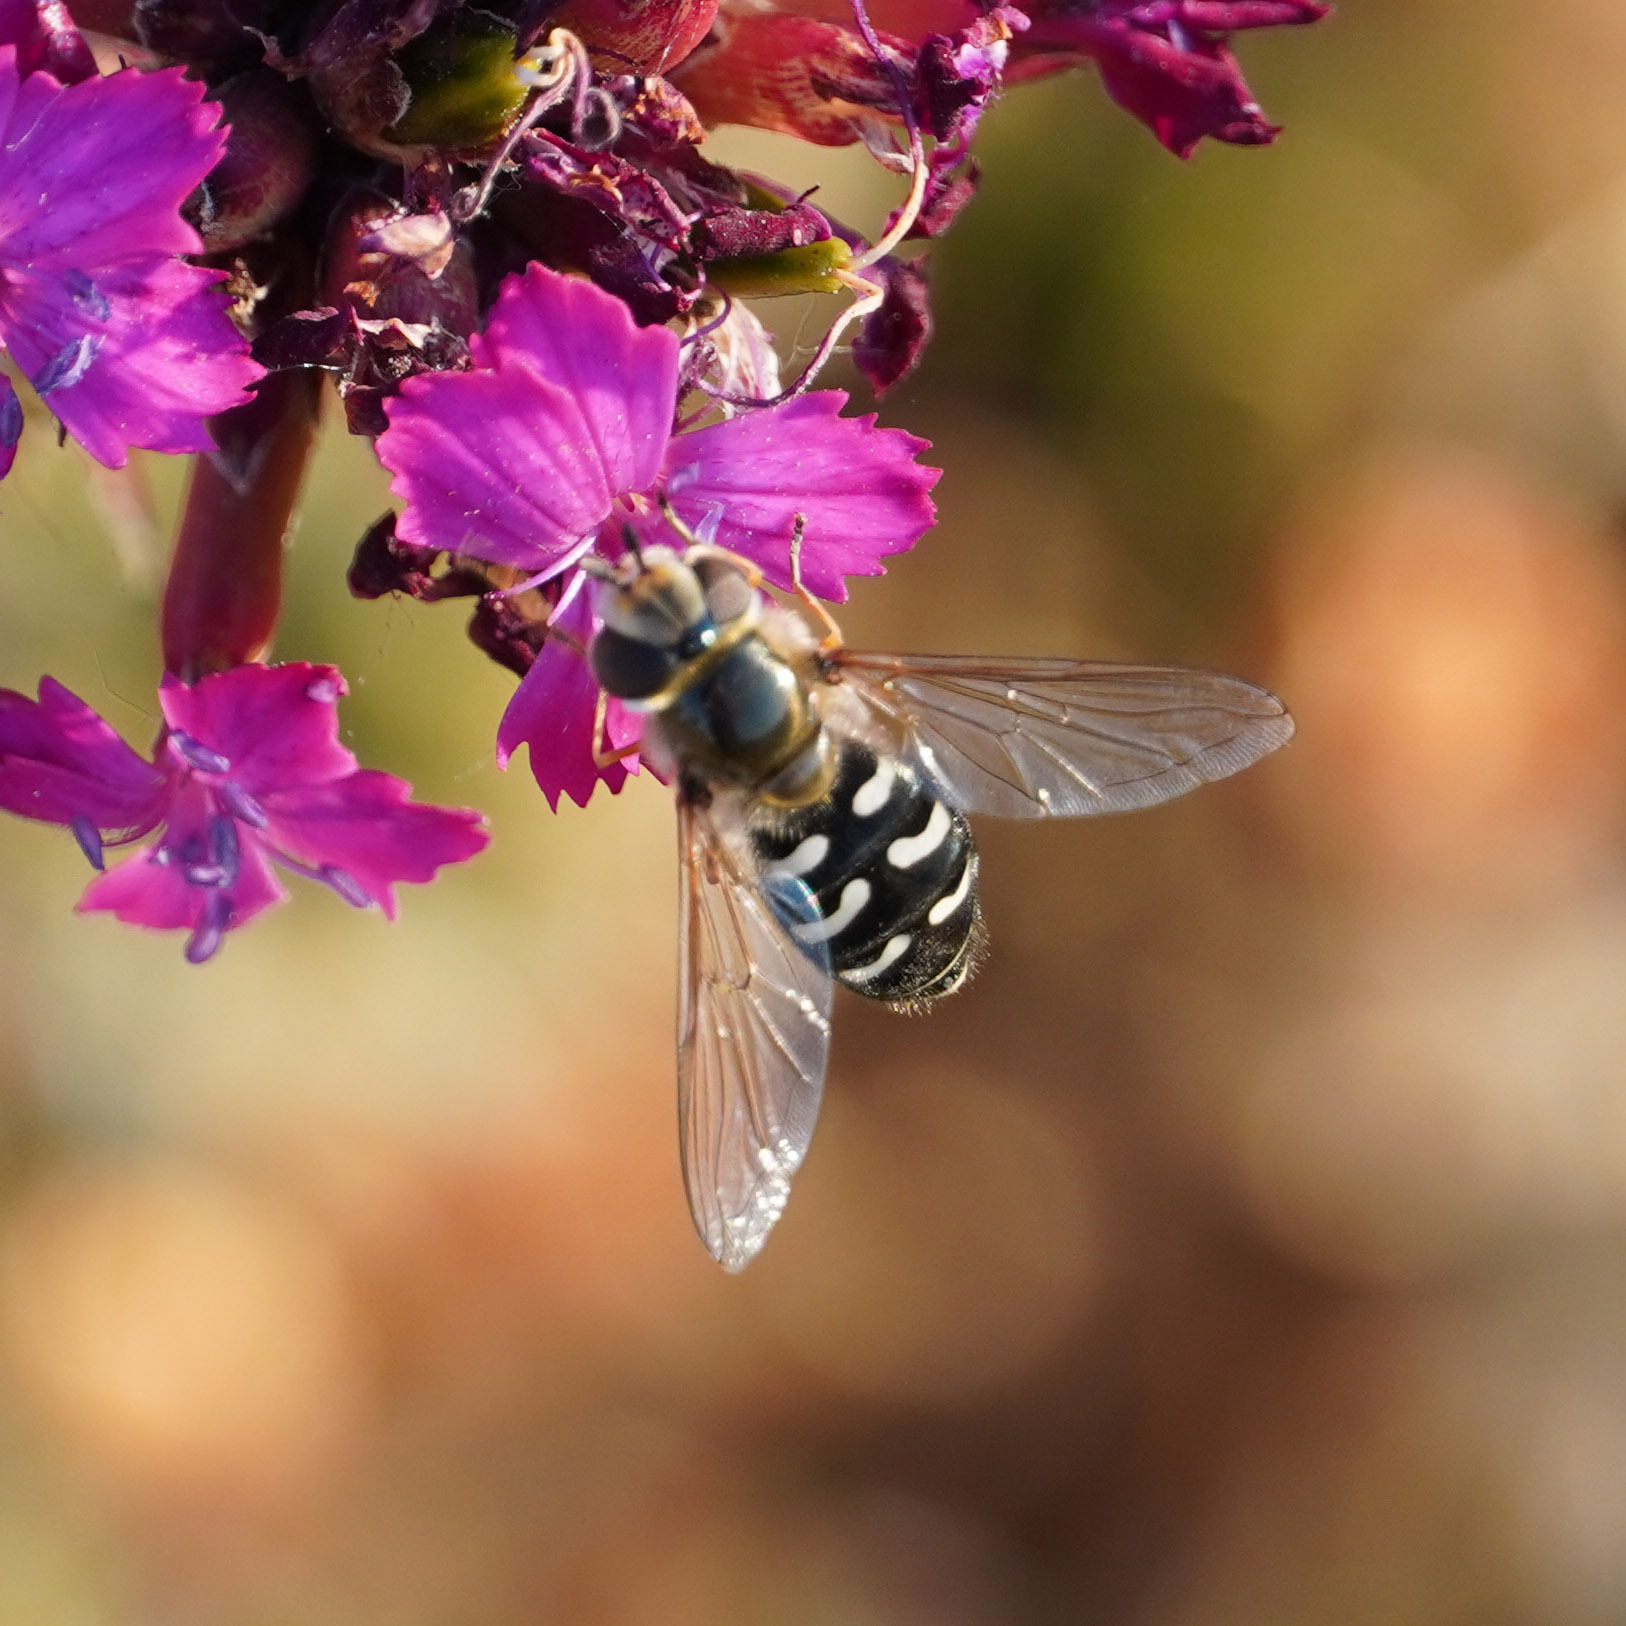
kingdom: Animalia
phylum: Arthropoda
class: Insecta
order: Diptera
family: Syrphidae
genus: Scaeva
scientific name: Scaeva pyrastri
